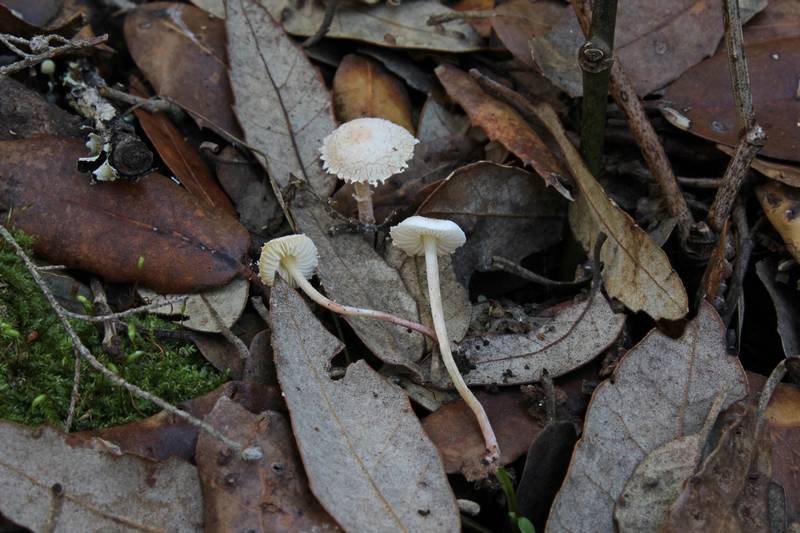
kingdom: Fungi
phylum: Basidiomycota
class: Agaricomycetes
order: Agaricales
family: Agaricaceae
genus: Cystolepiota
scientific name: Cystolepiota seminuda
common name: Bearded dapperling
